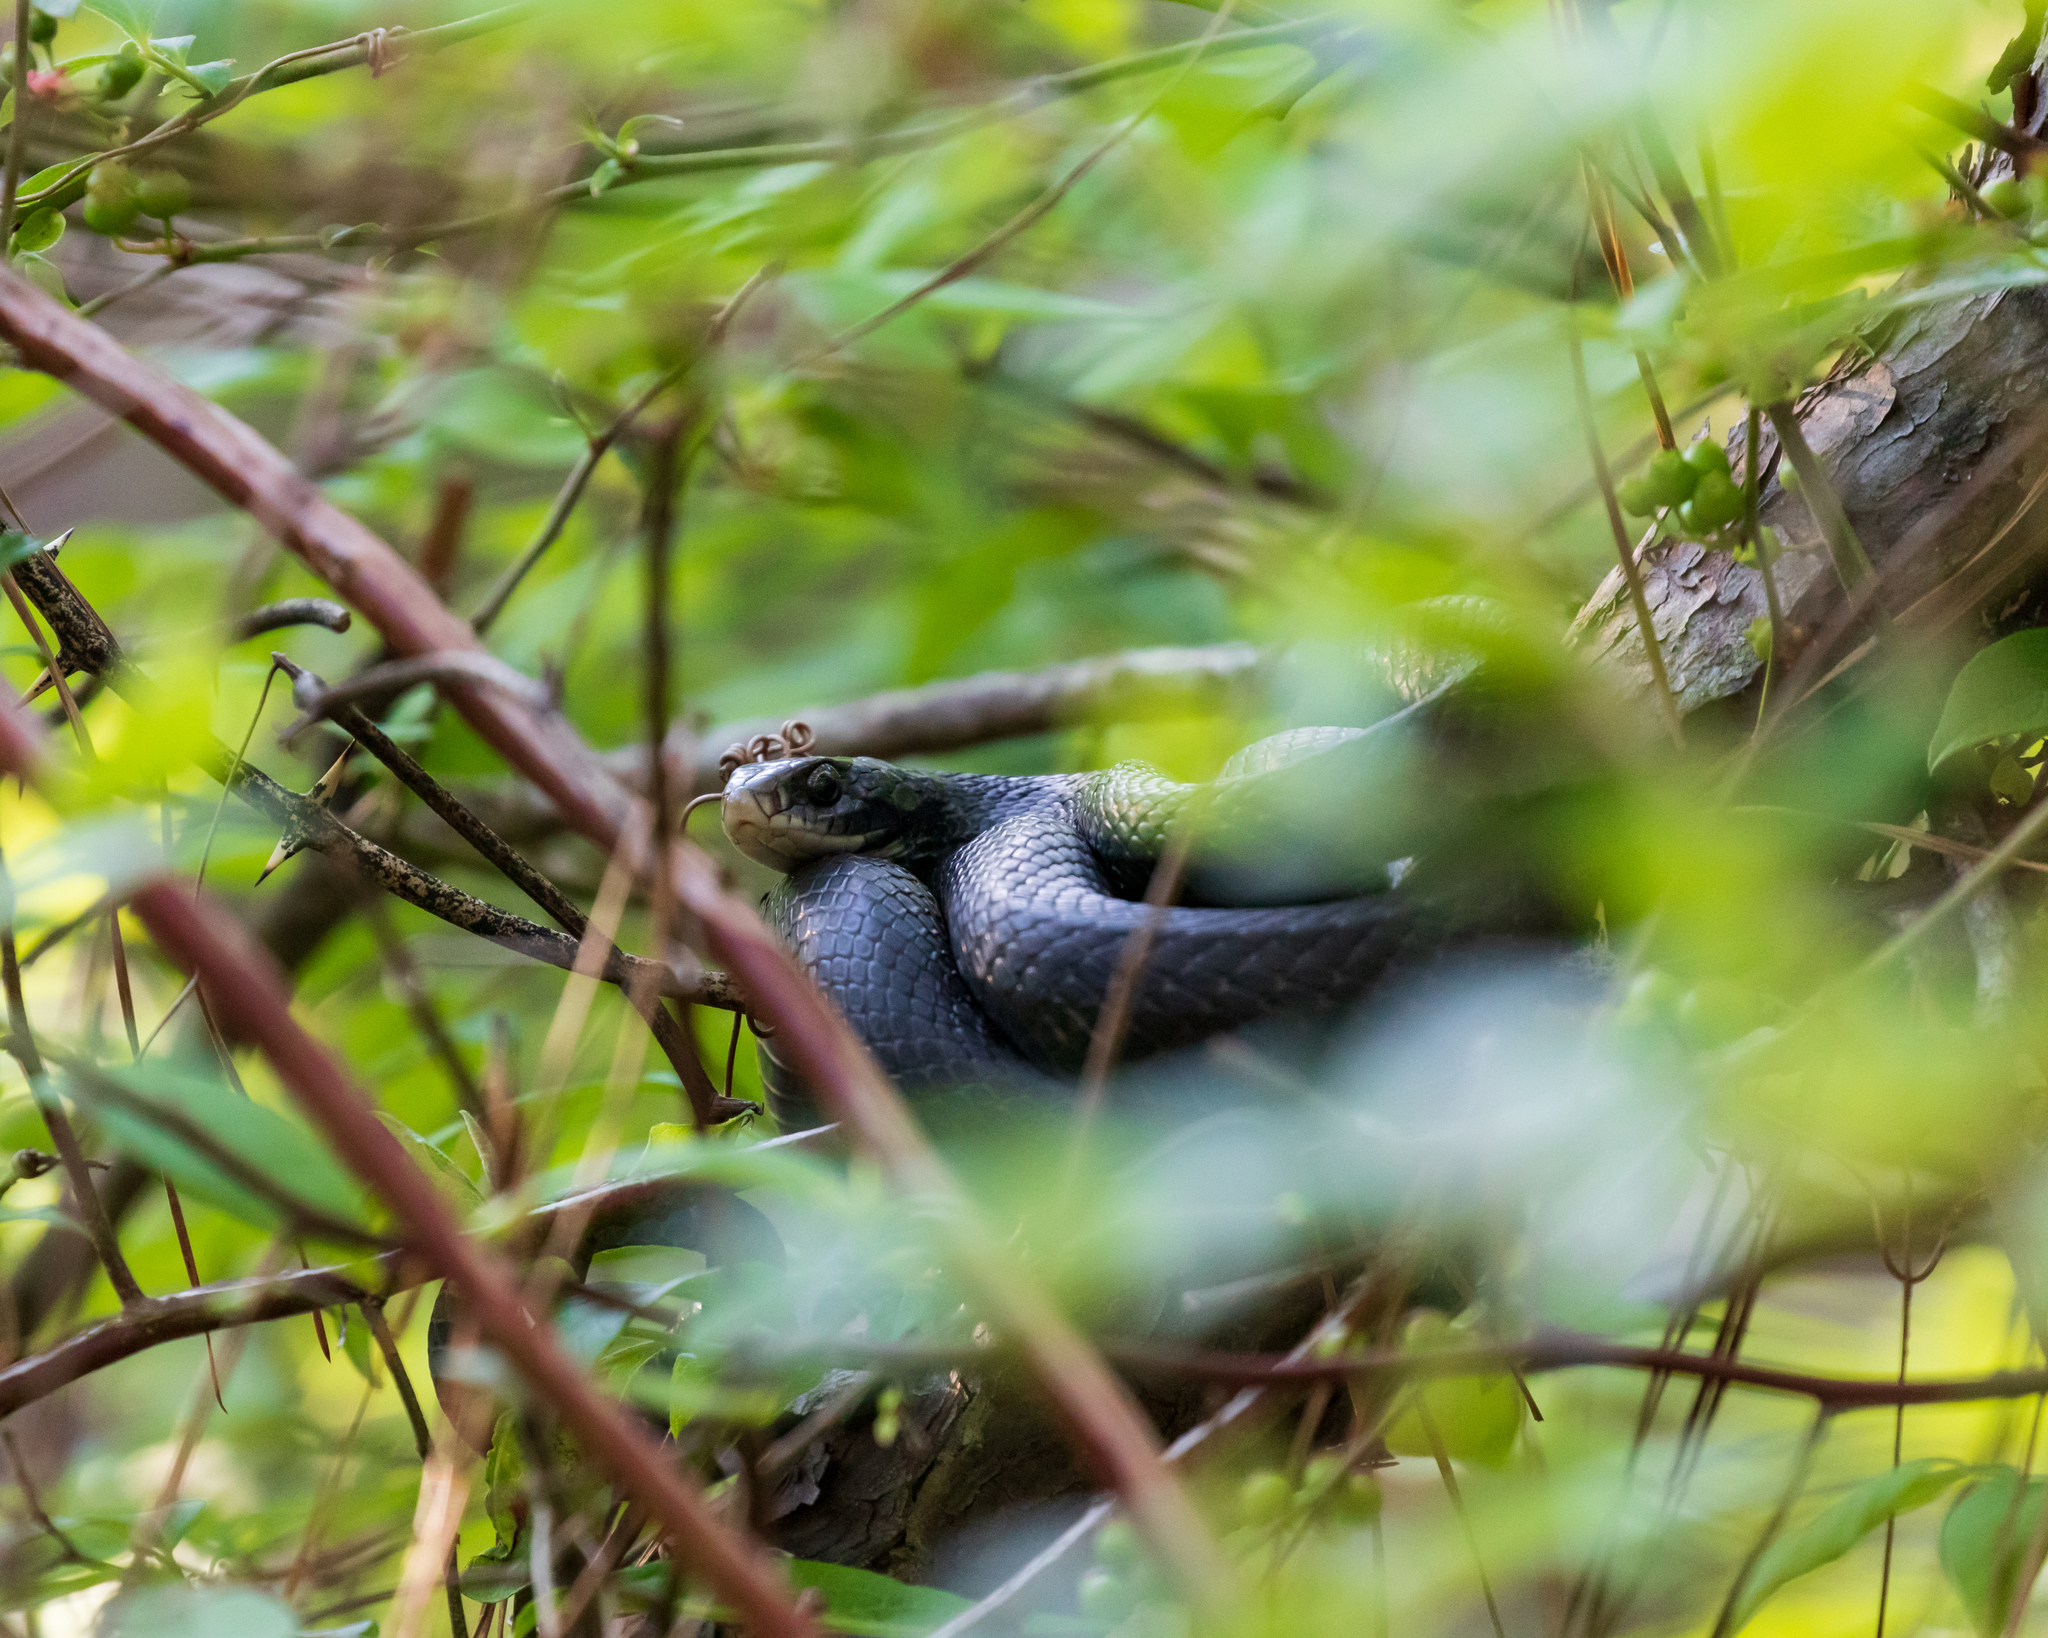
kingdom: Animalia
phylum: Chordata
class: Squamata
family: Colubridae
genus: Coluber
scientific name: Coluber constrictor
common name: Eastern racer
